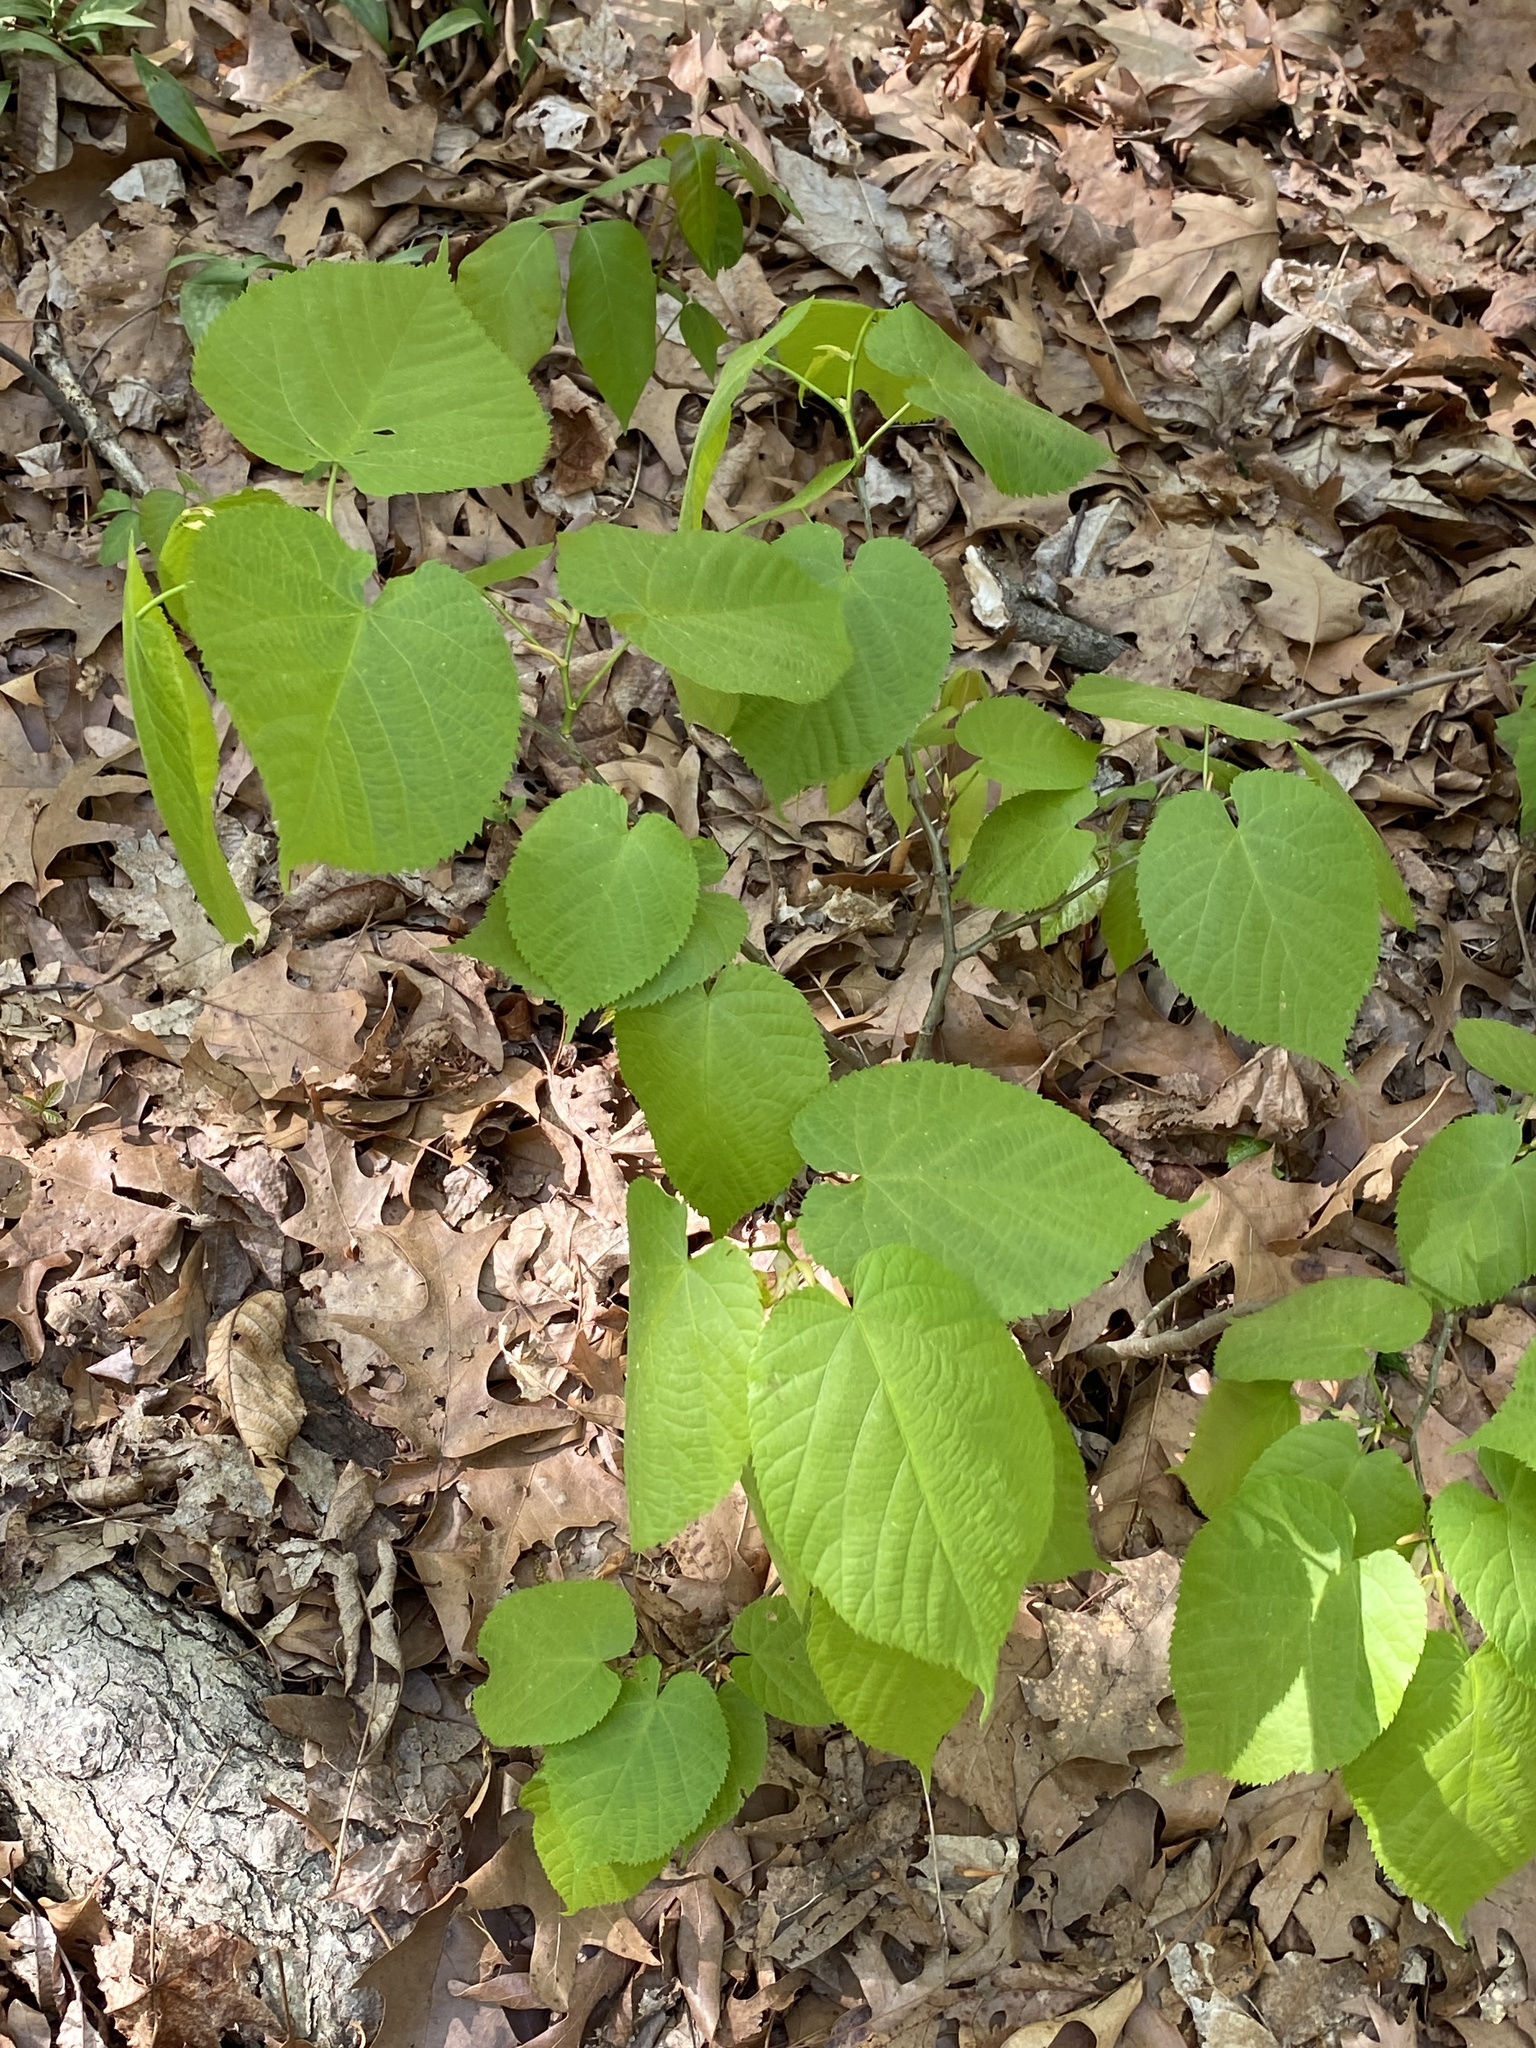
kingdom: Plantae
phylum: Tracheophyta
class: Magnoliopsida
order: Malvales
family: Malvaceae
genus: Tilia
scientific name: Tilia americana
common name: Basswood
